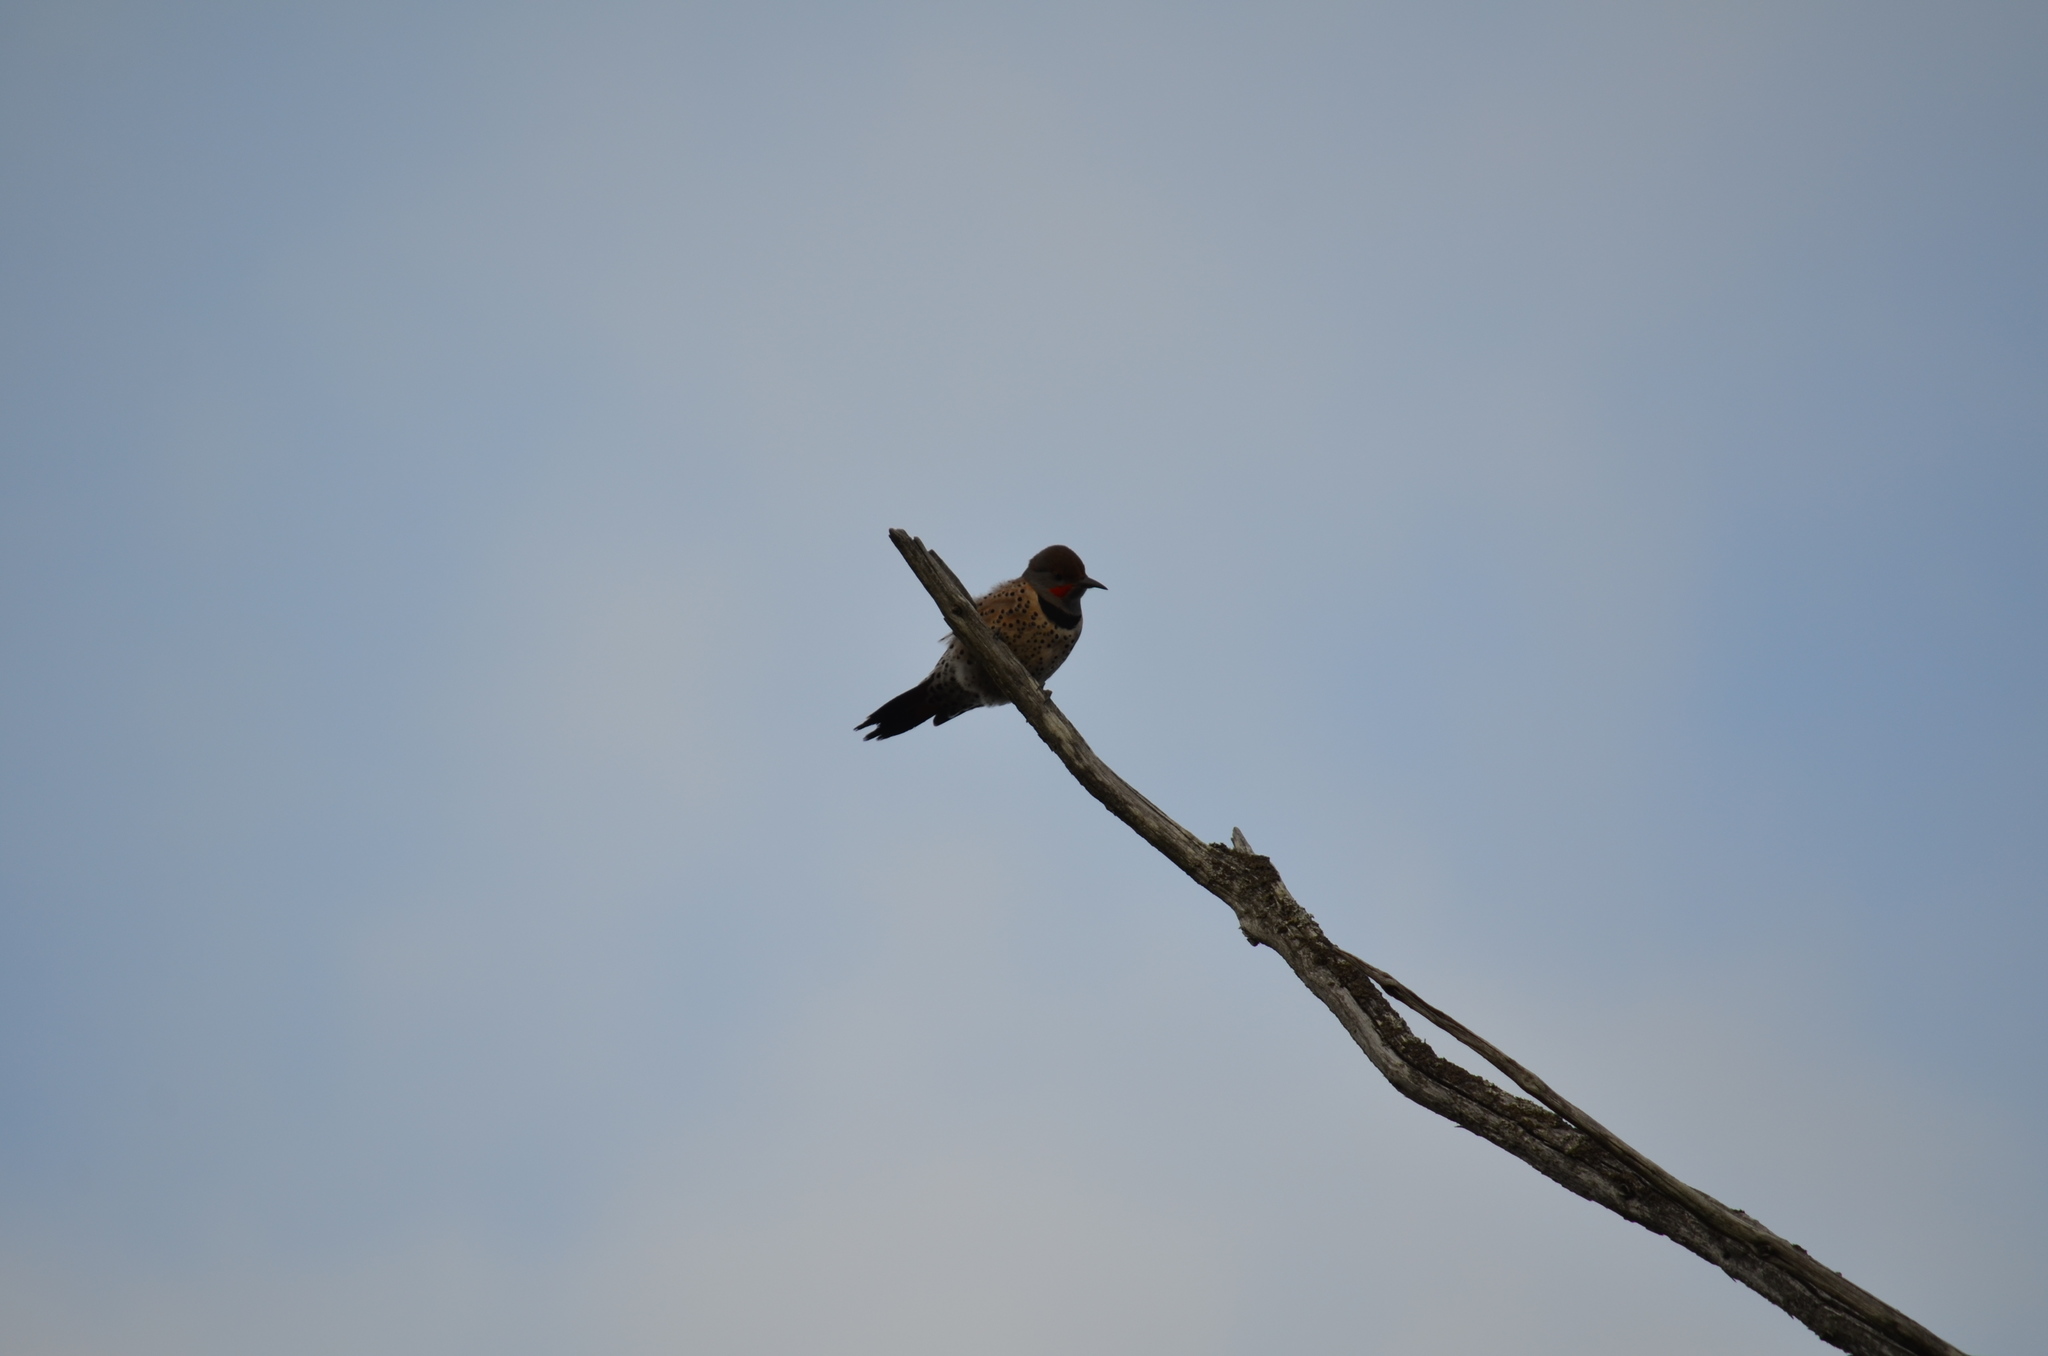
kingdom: Animalia
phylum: Chordata
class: Aves
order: Piciformes
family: Picidae
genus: Colaptes
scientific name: Colaptes auratus
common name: Northern flicker
